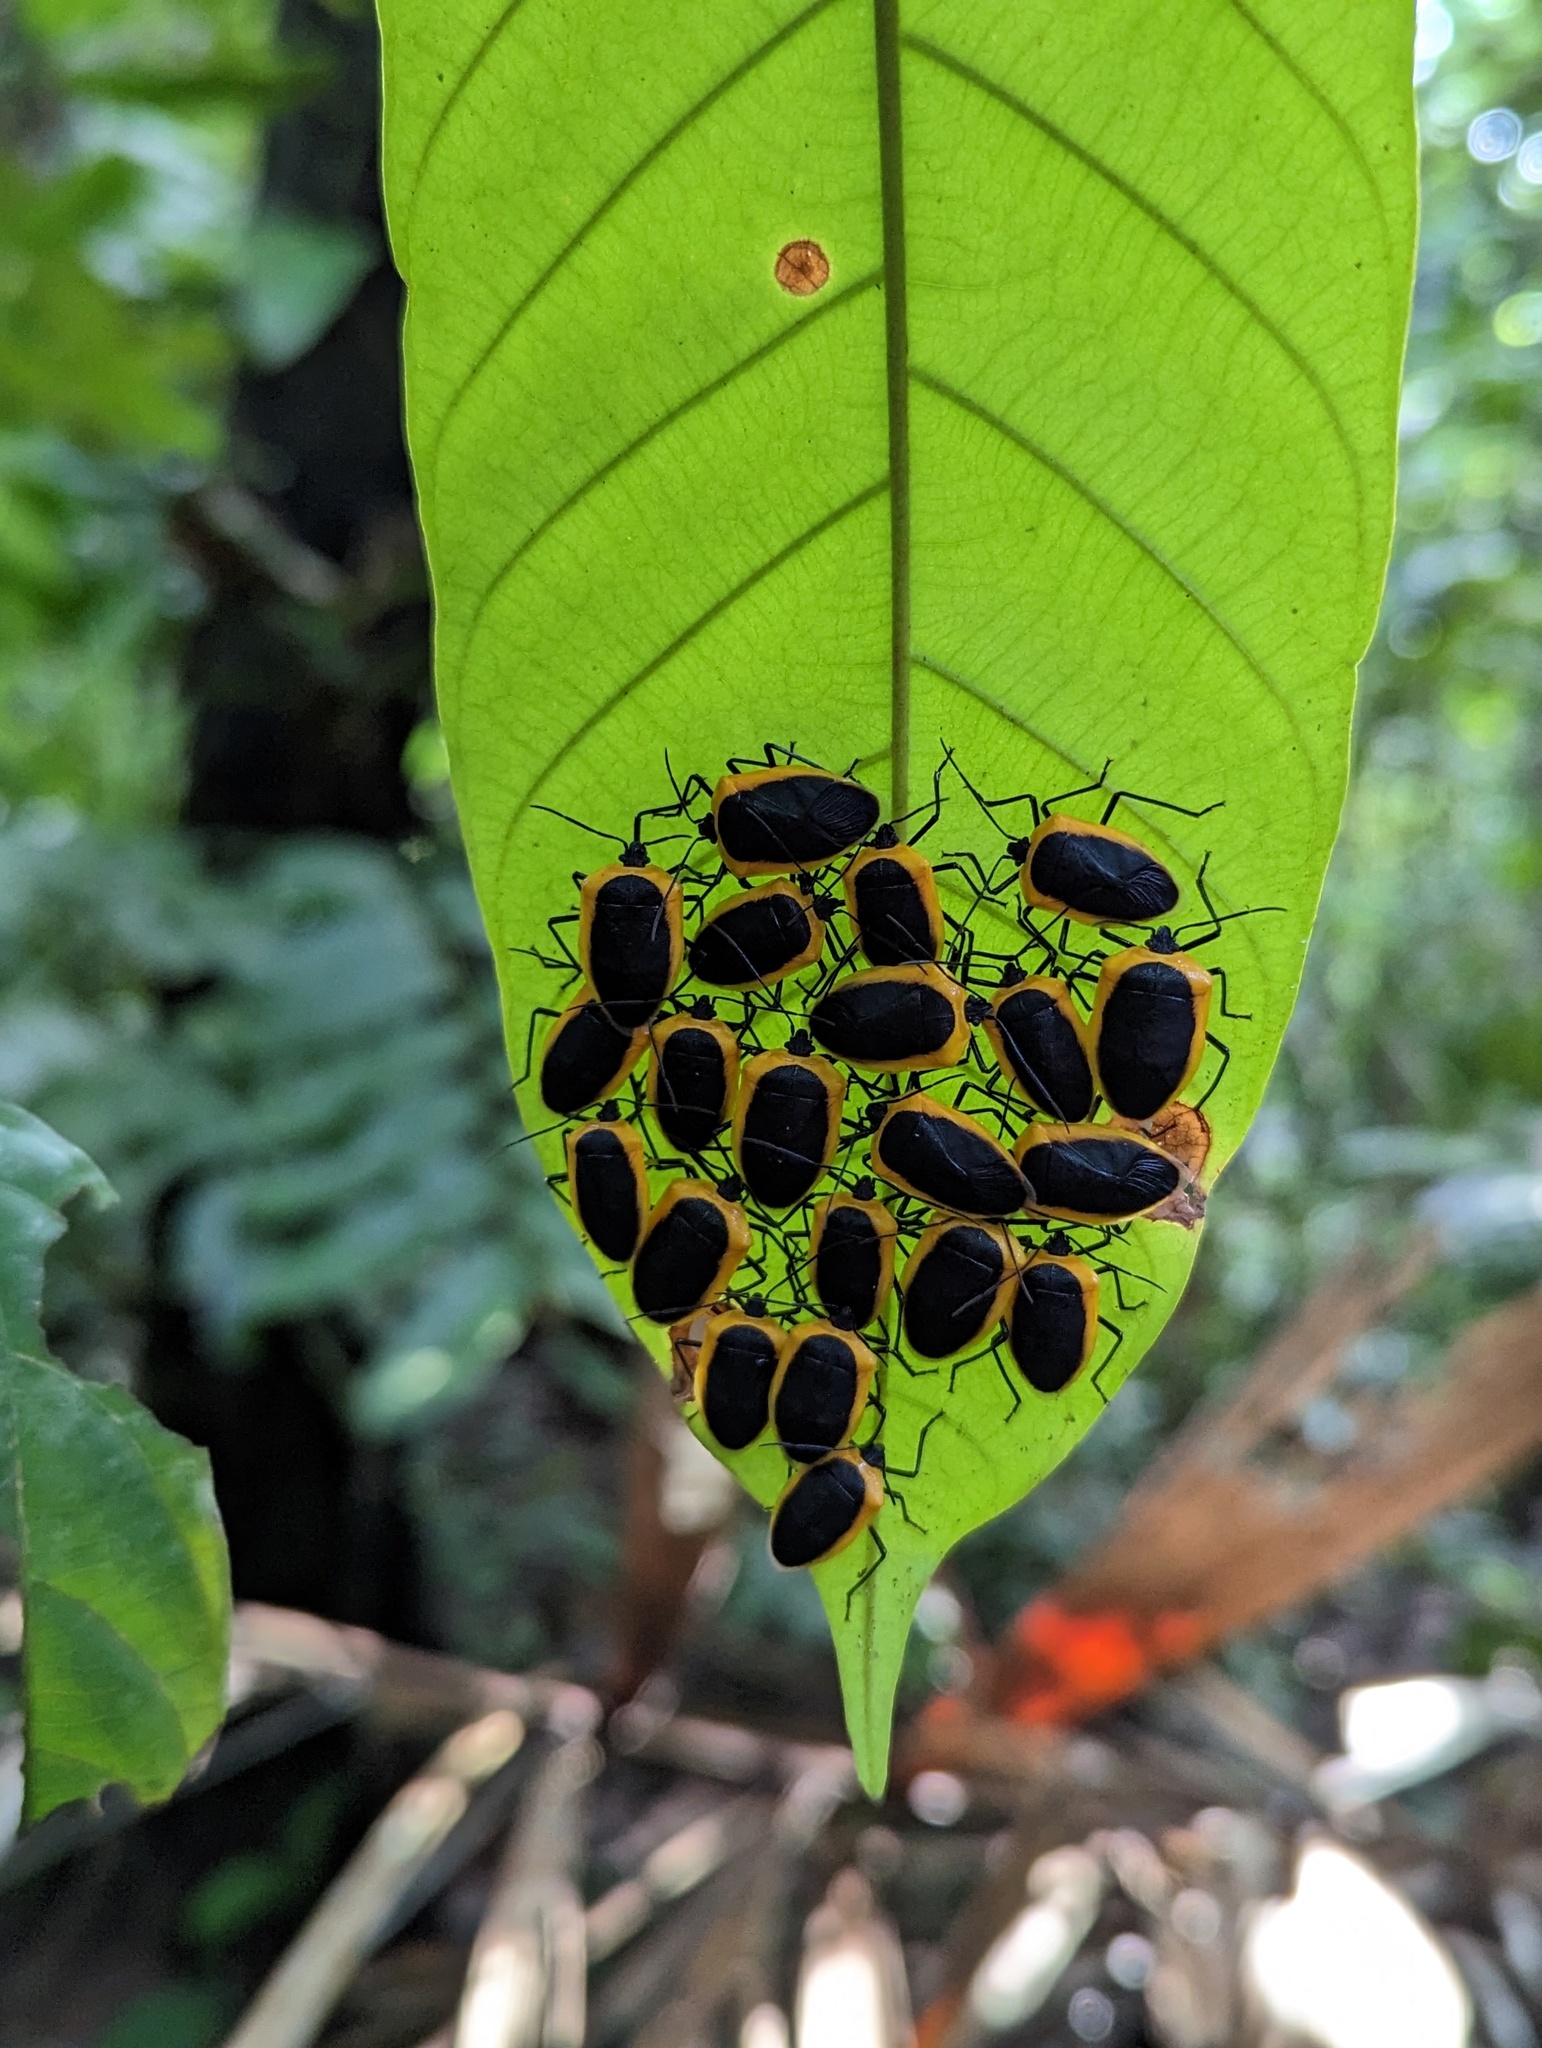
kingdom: Animalia
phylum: Arthropoda
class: Insecta
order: Hemiptera
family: Pentatomidae
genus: Runibia
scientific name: Runibia discoidea
